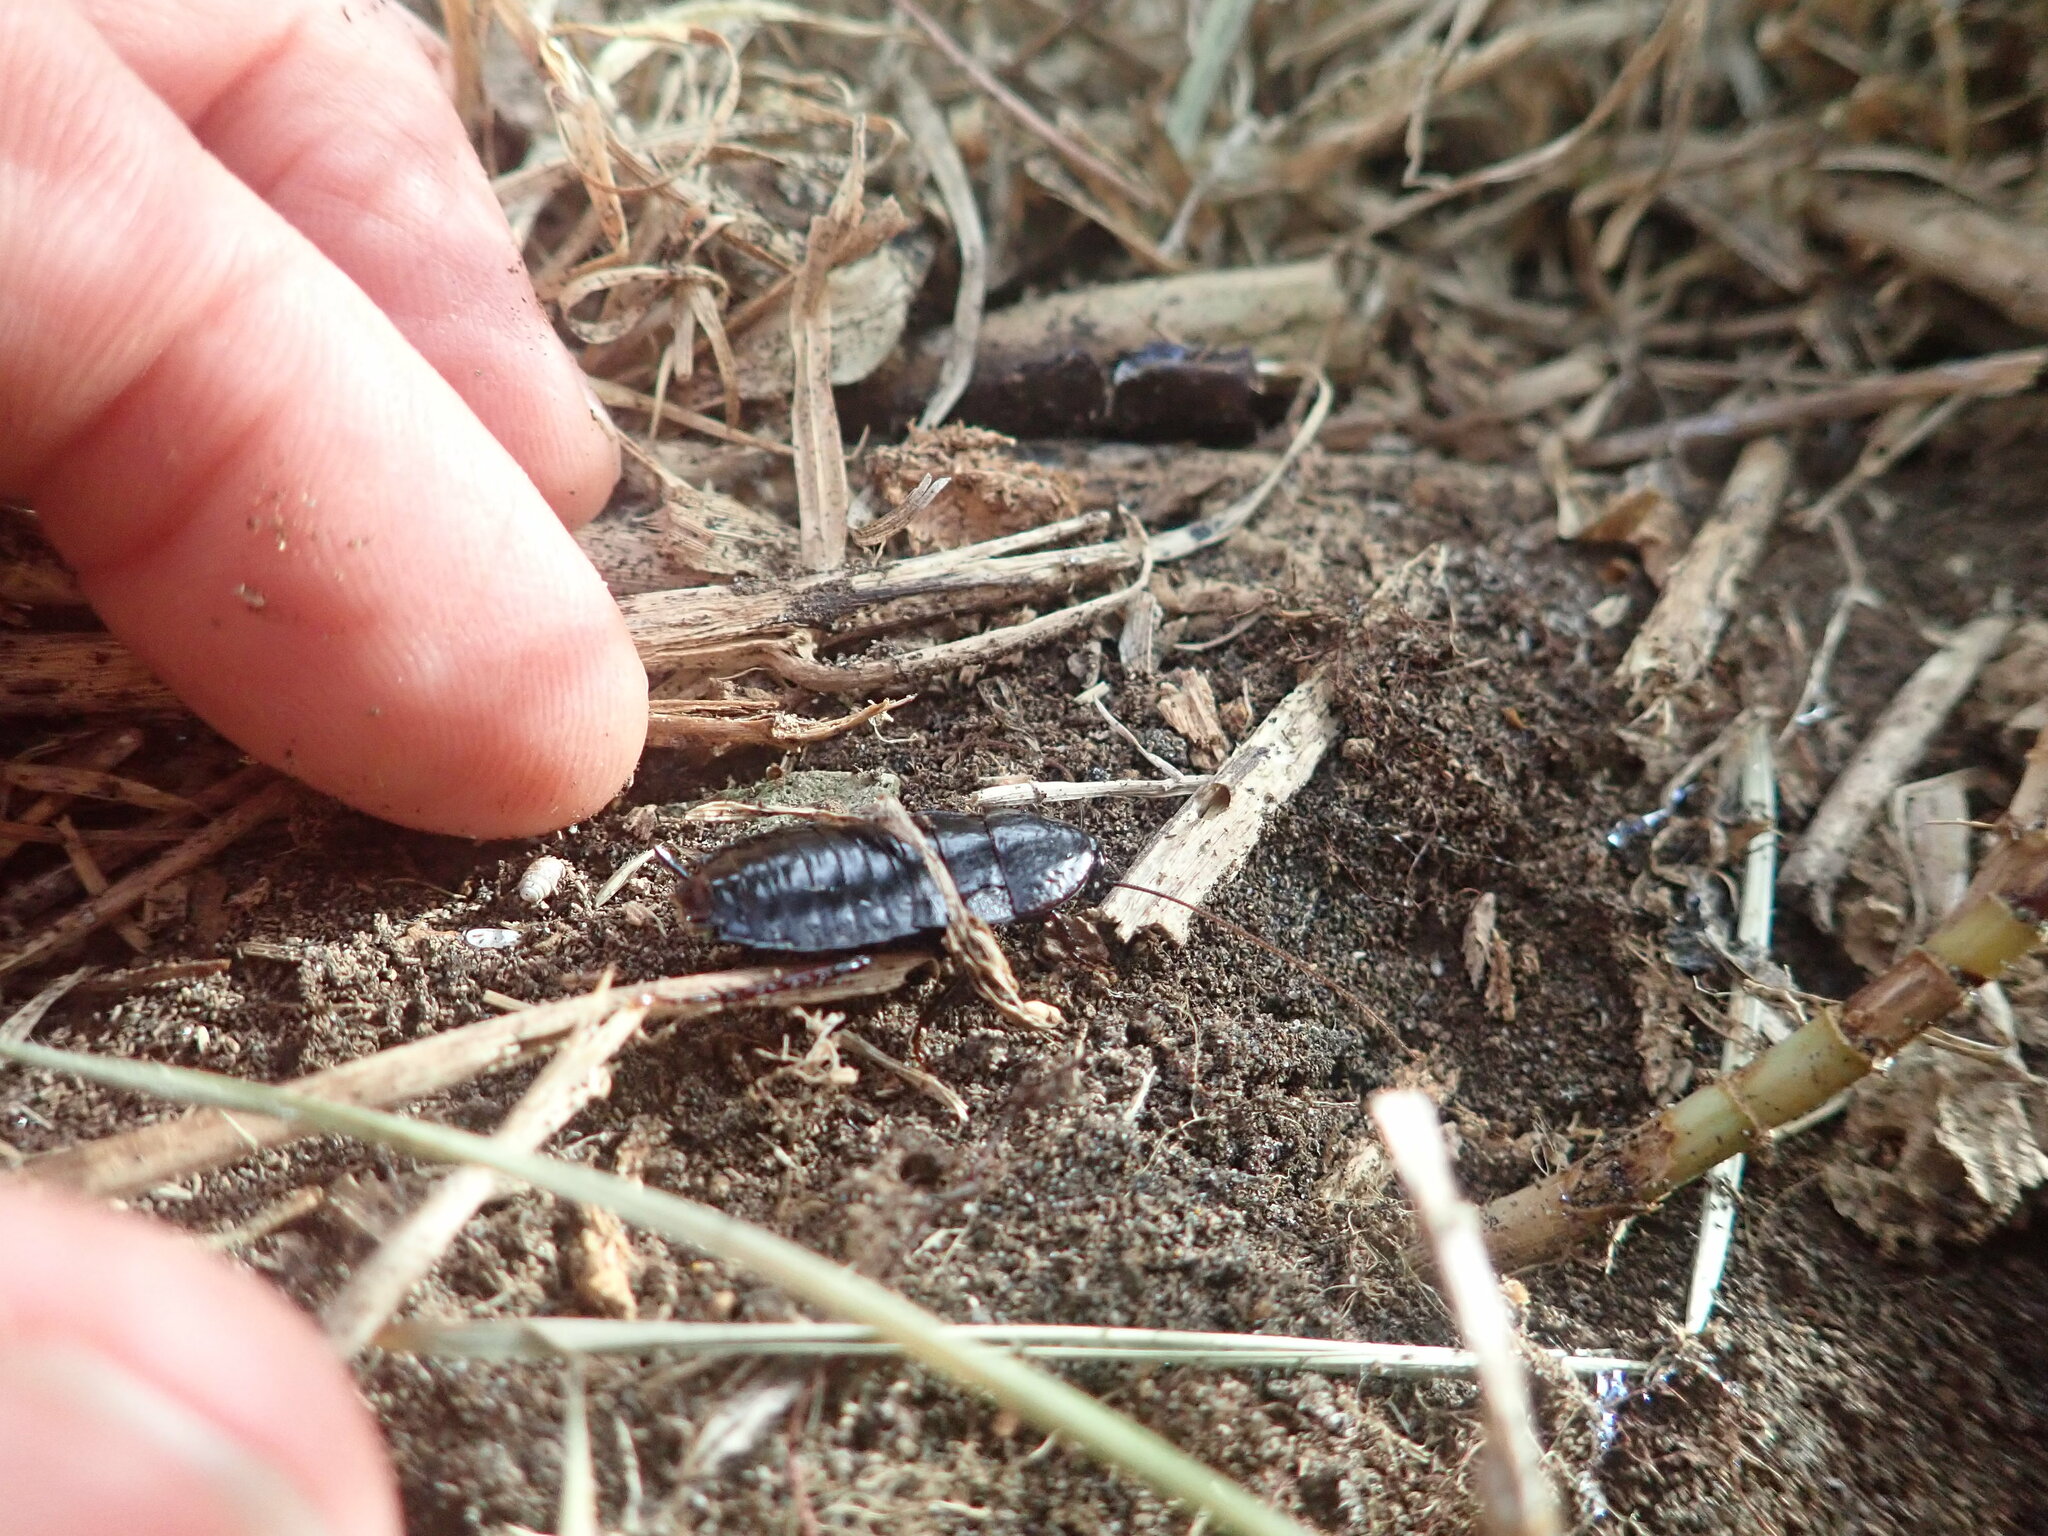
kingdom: Animalia
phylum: Arthropoda
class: Insecta
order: Blattodea
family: Blattidae
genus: Maoriblatta
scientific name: Maoriblatta novaeseelandiae
